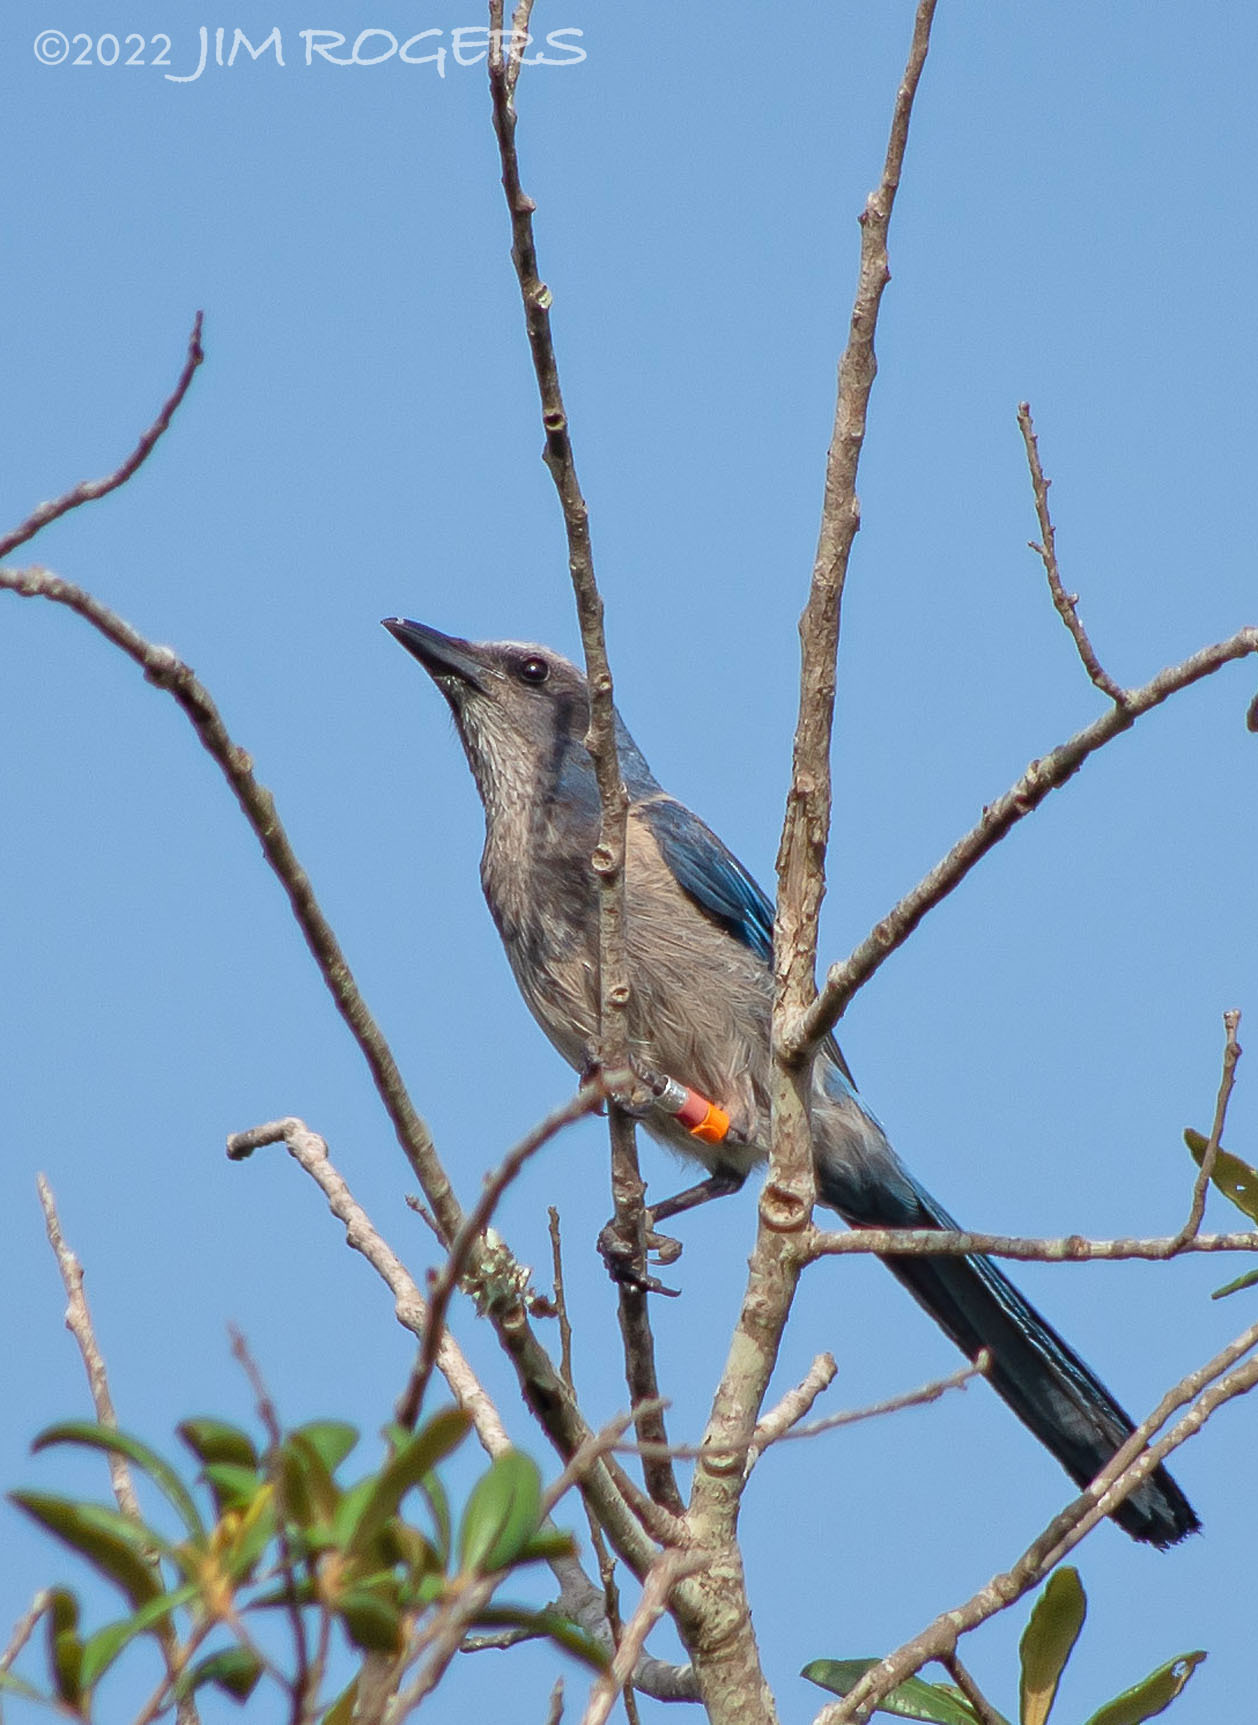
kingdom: Animalia
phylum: Chordata
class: Aves
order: Passeriformes
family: Corvidae
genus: Aphelocoma
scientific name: Aphelocoma coerulescens
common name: Florida scrub jay
